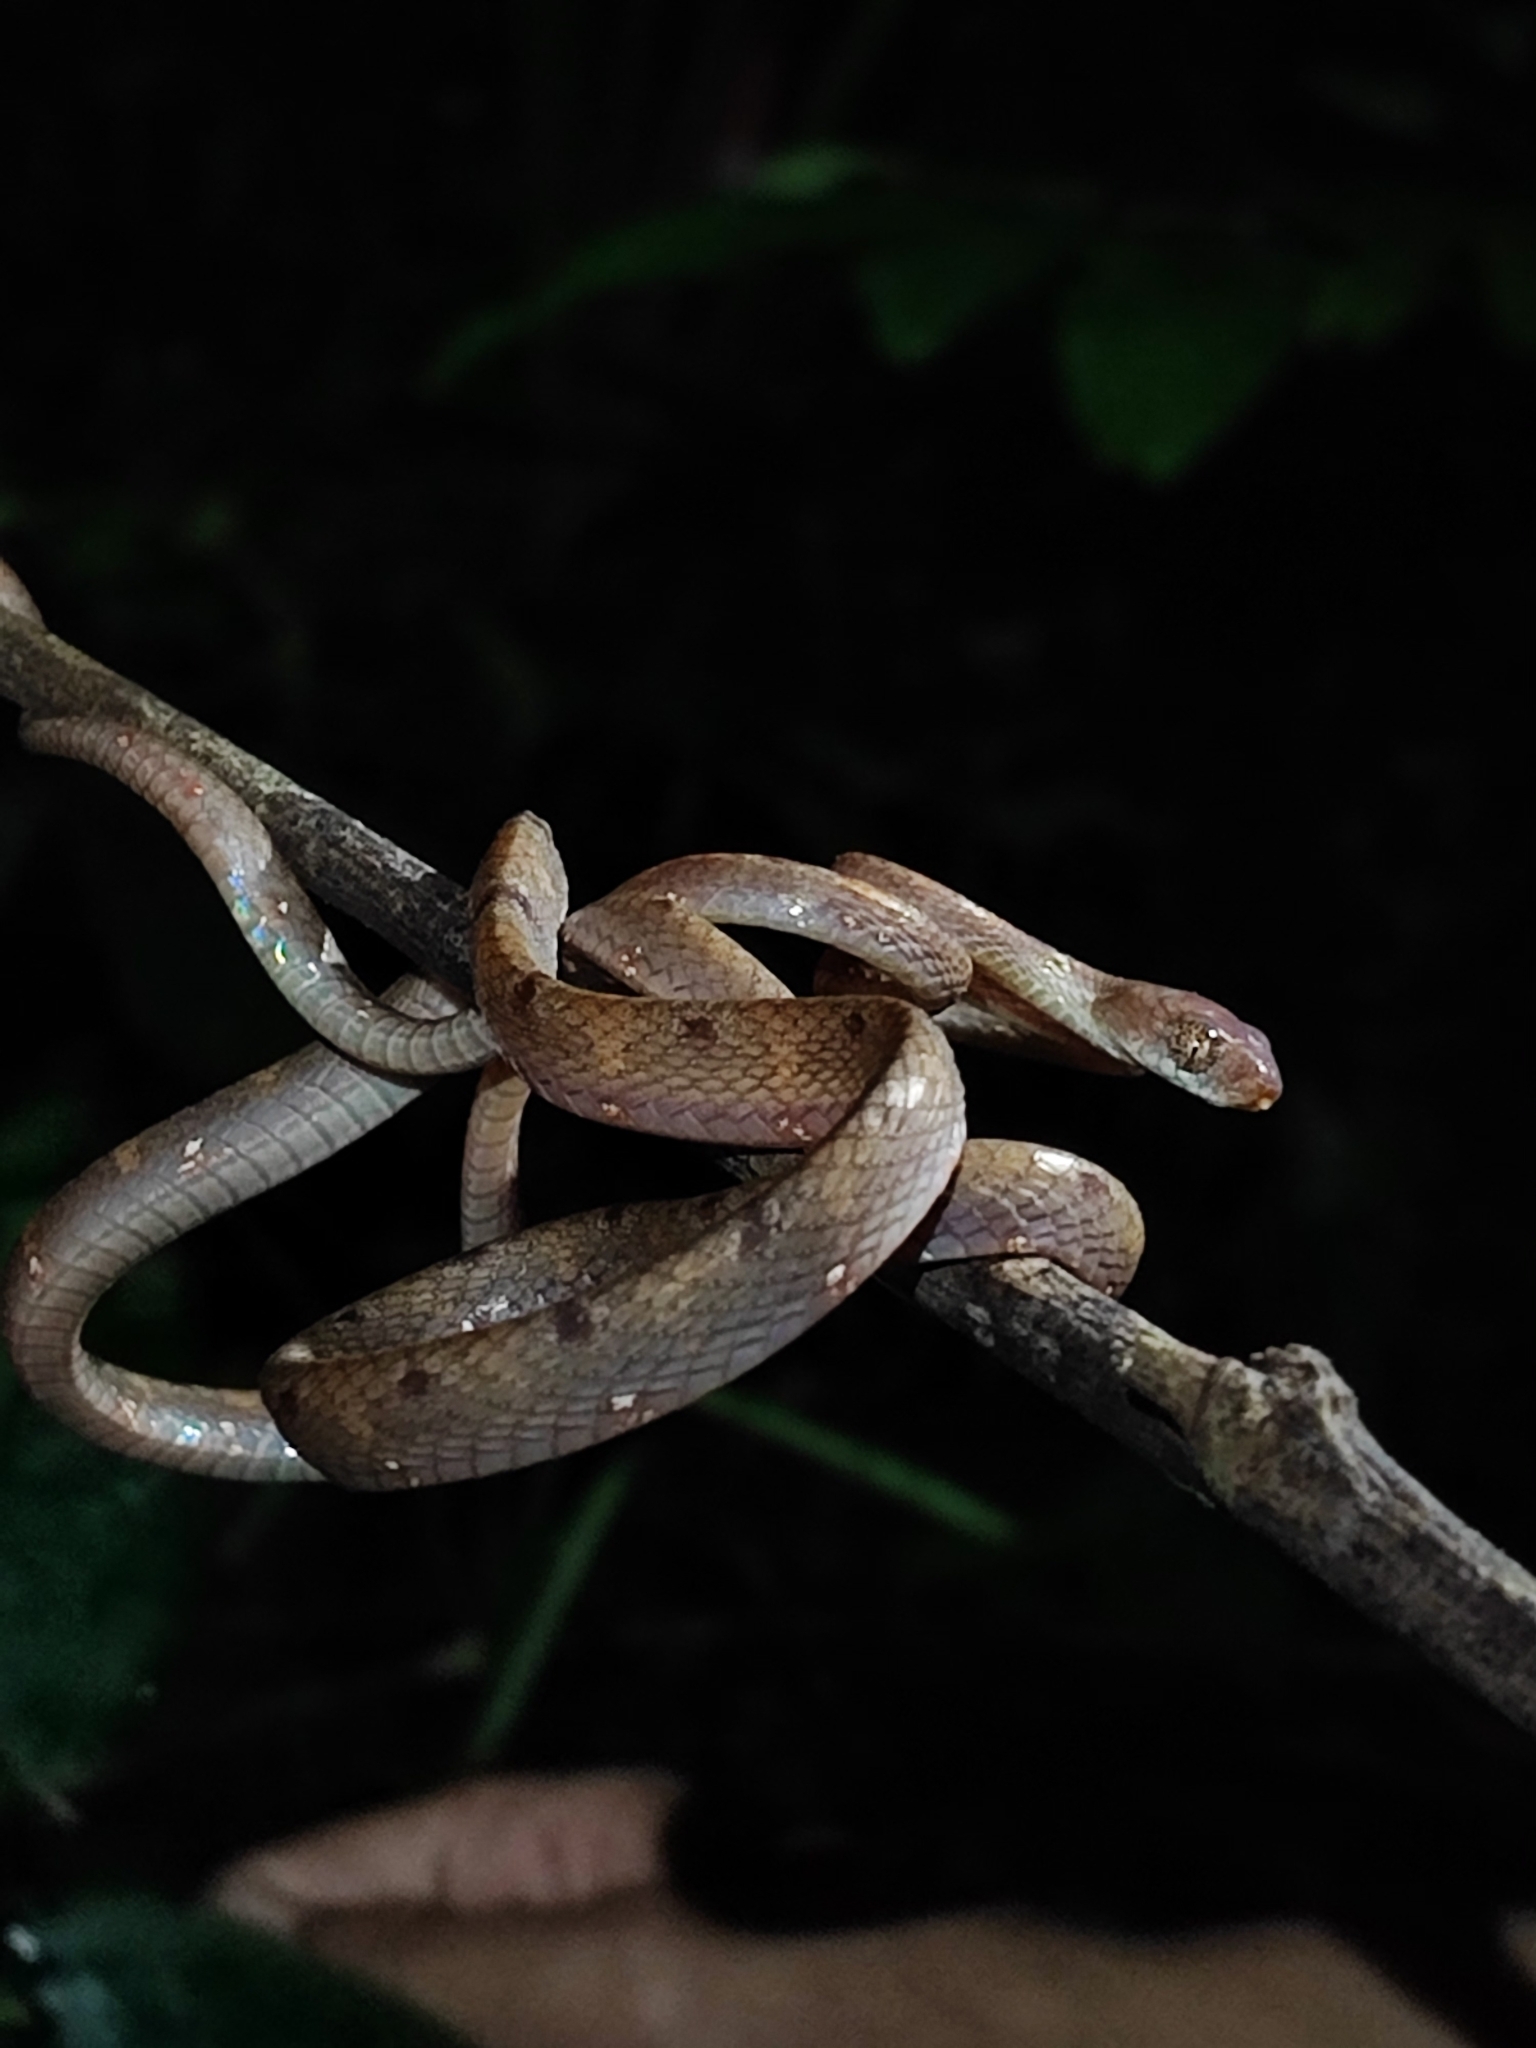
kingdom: Animalia
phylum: Chordata
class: Squamata
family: Colubridae
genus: Boiga
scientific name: Boiga drapiezii
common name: White-spotted cat snake
